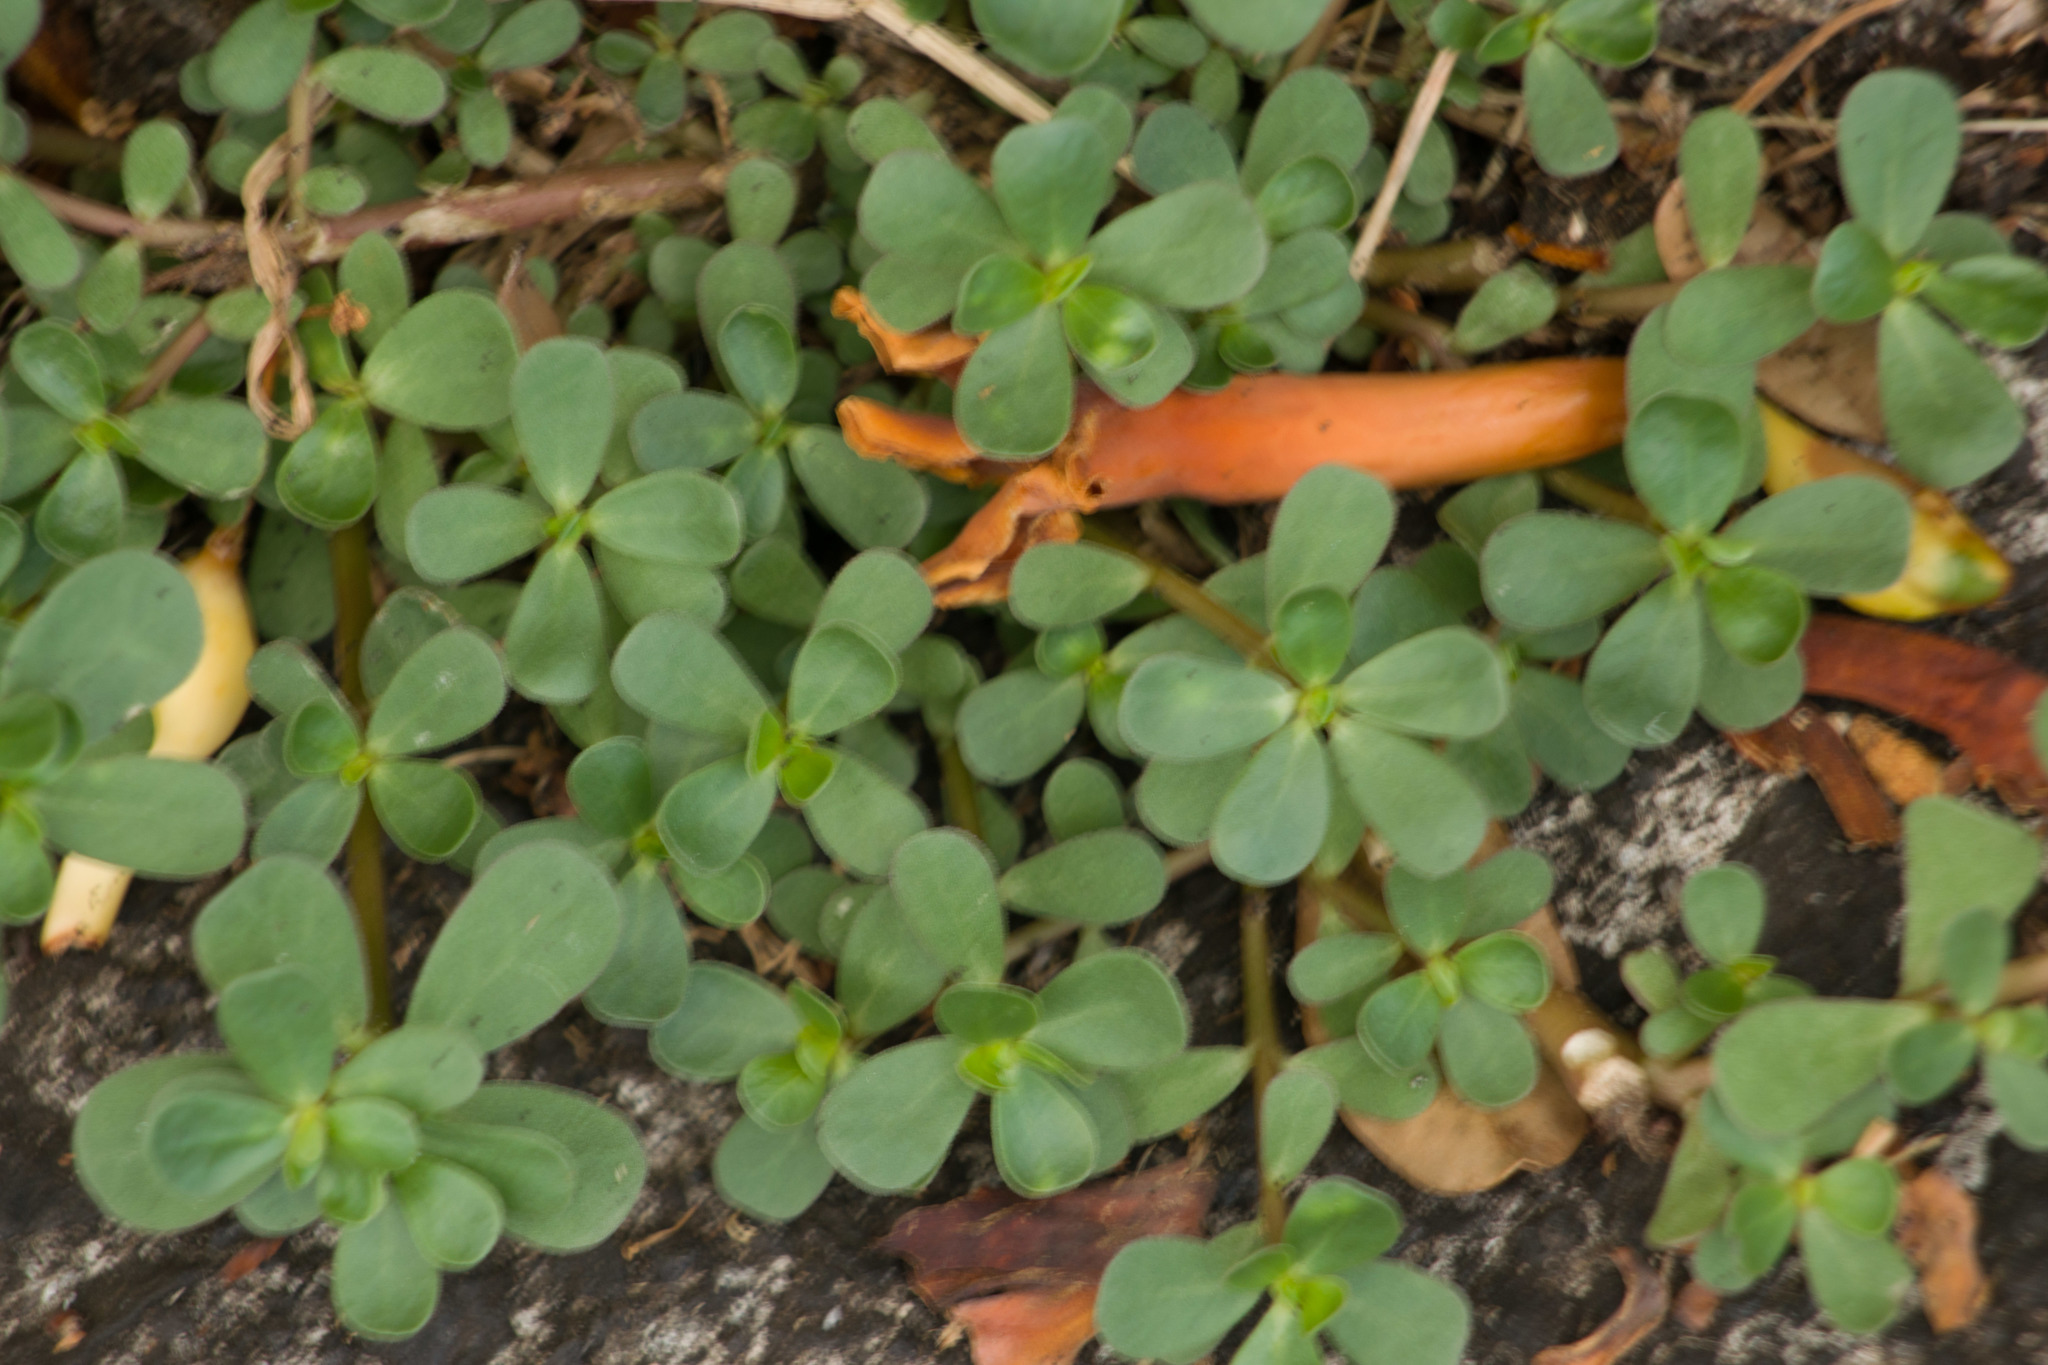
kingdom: Plantae
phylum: Tracheophyta
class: Magnoliopsida
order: Caryophyllales
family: Portulacaceae
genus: Portulaca
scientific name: Portulaca oleracea
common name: Common purslane
